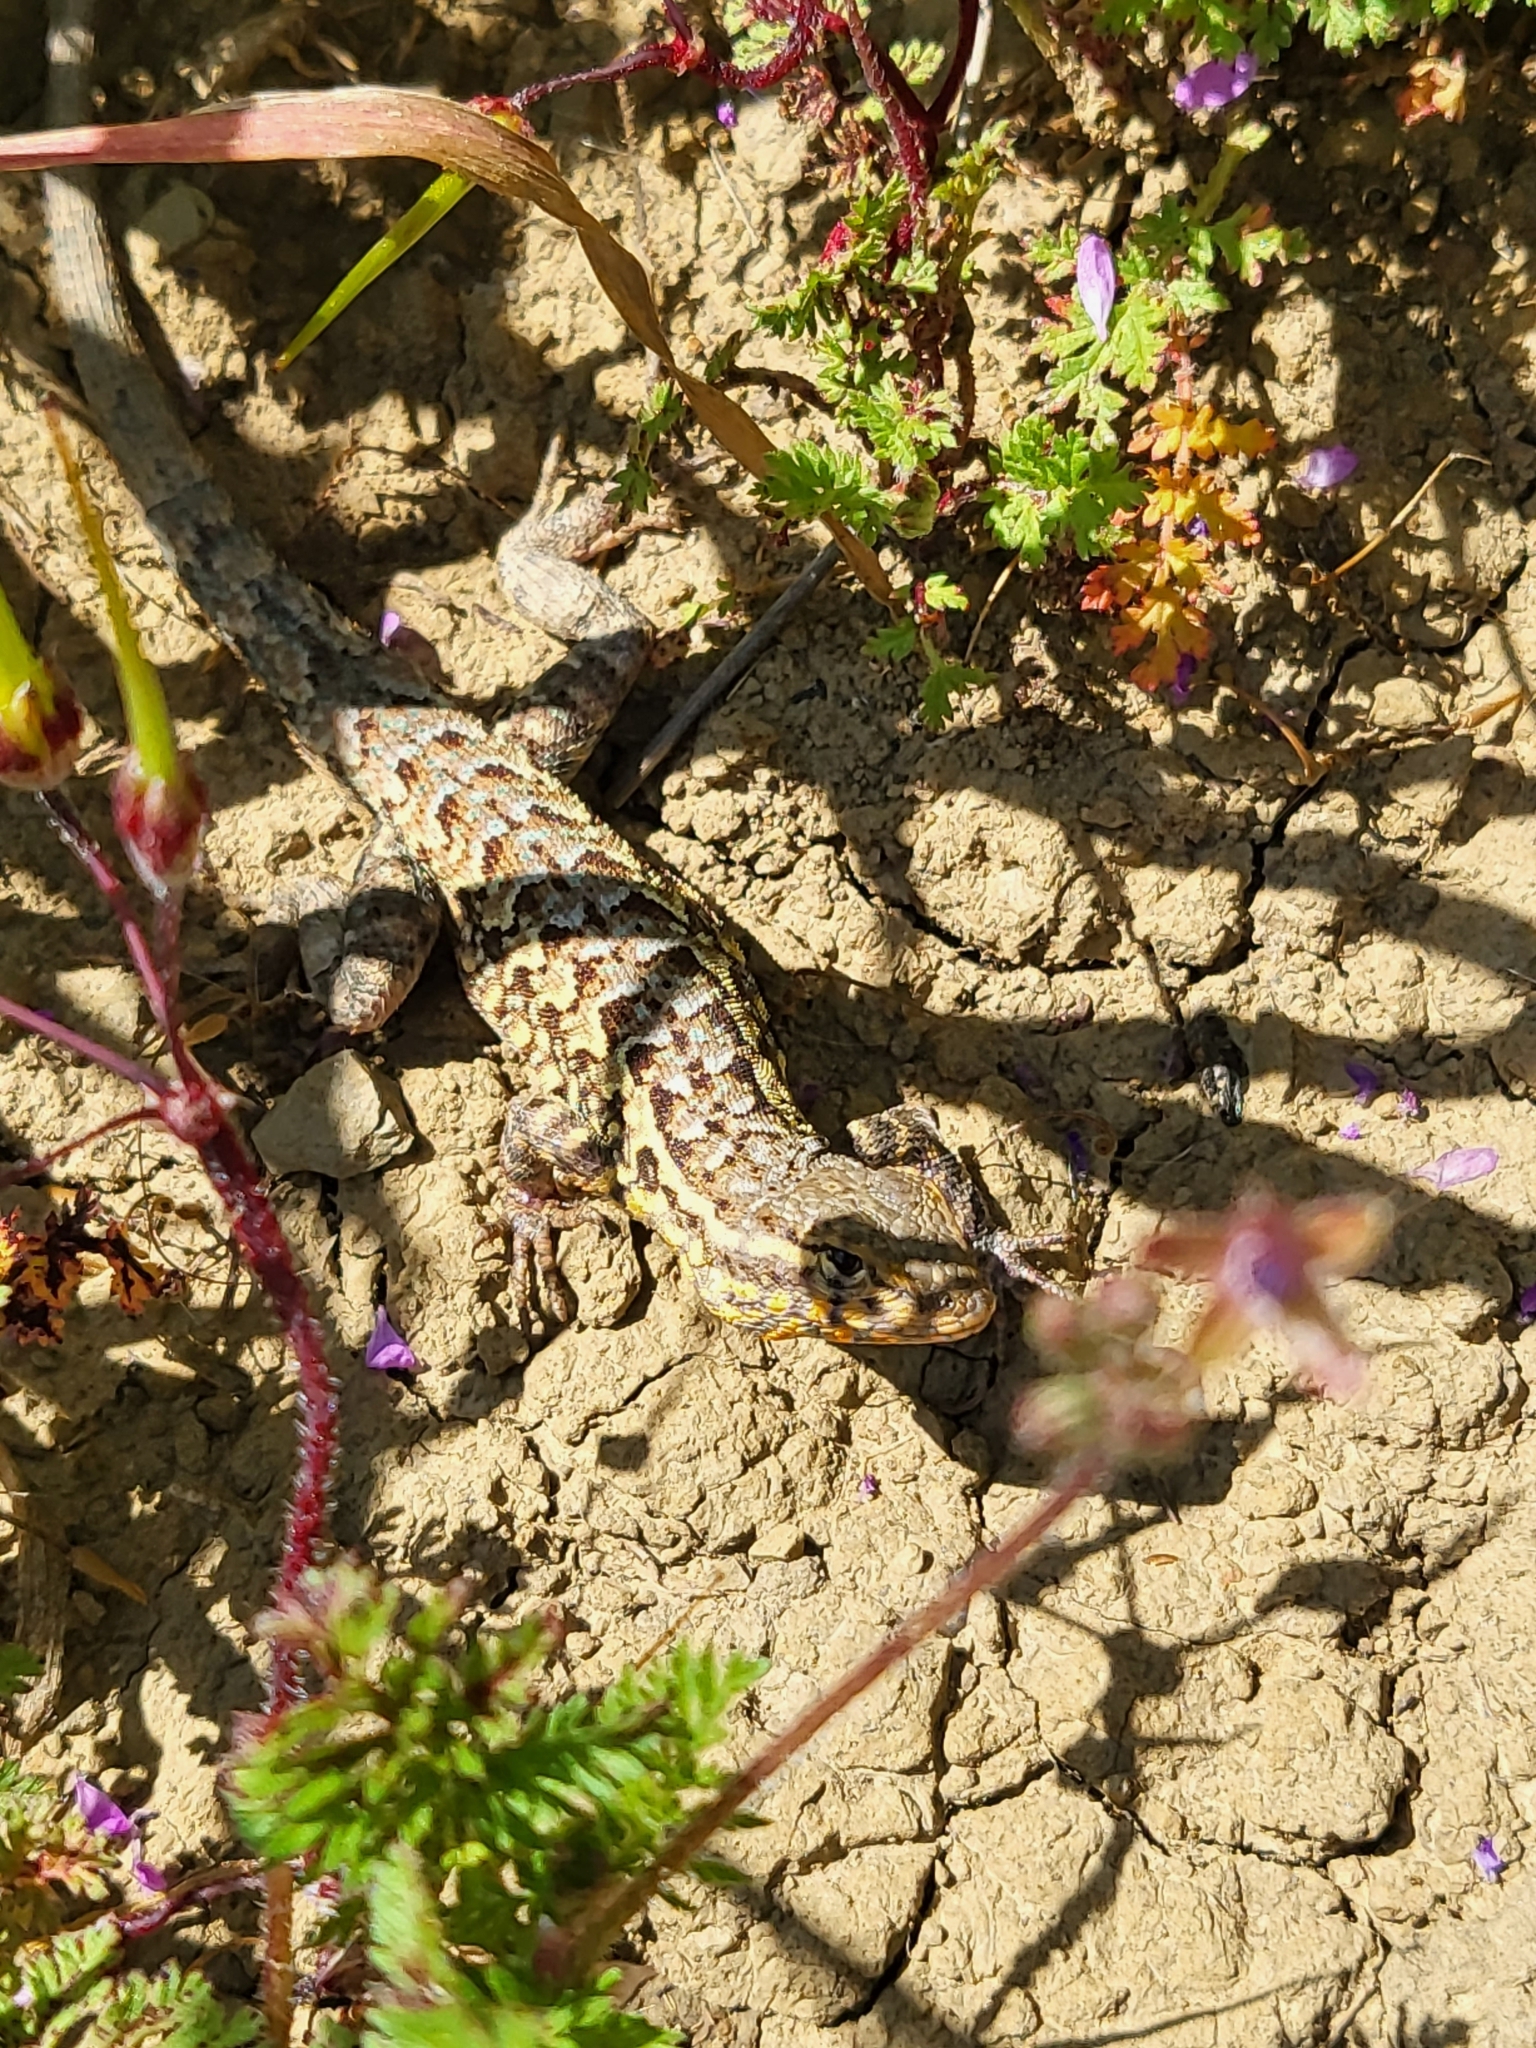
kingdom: Animalia
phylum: Chordata
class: Squamata
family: Phrynosomatidae
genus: Uta
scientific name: Uta stansburiana
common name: Side-blotched lizard
